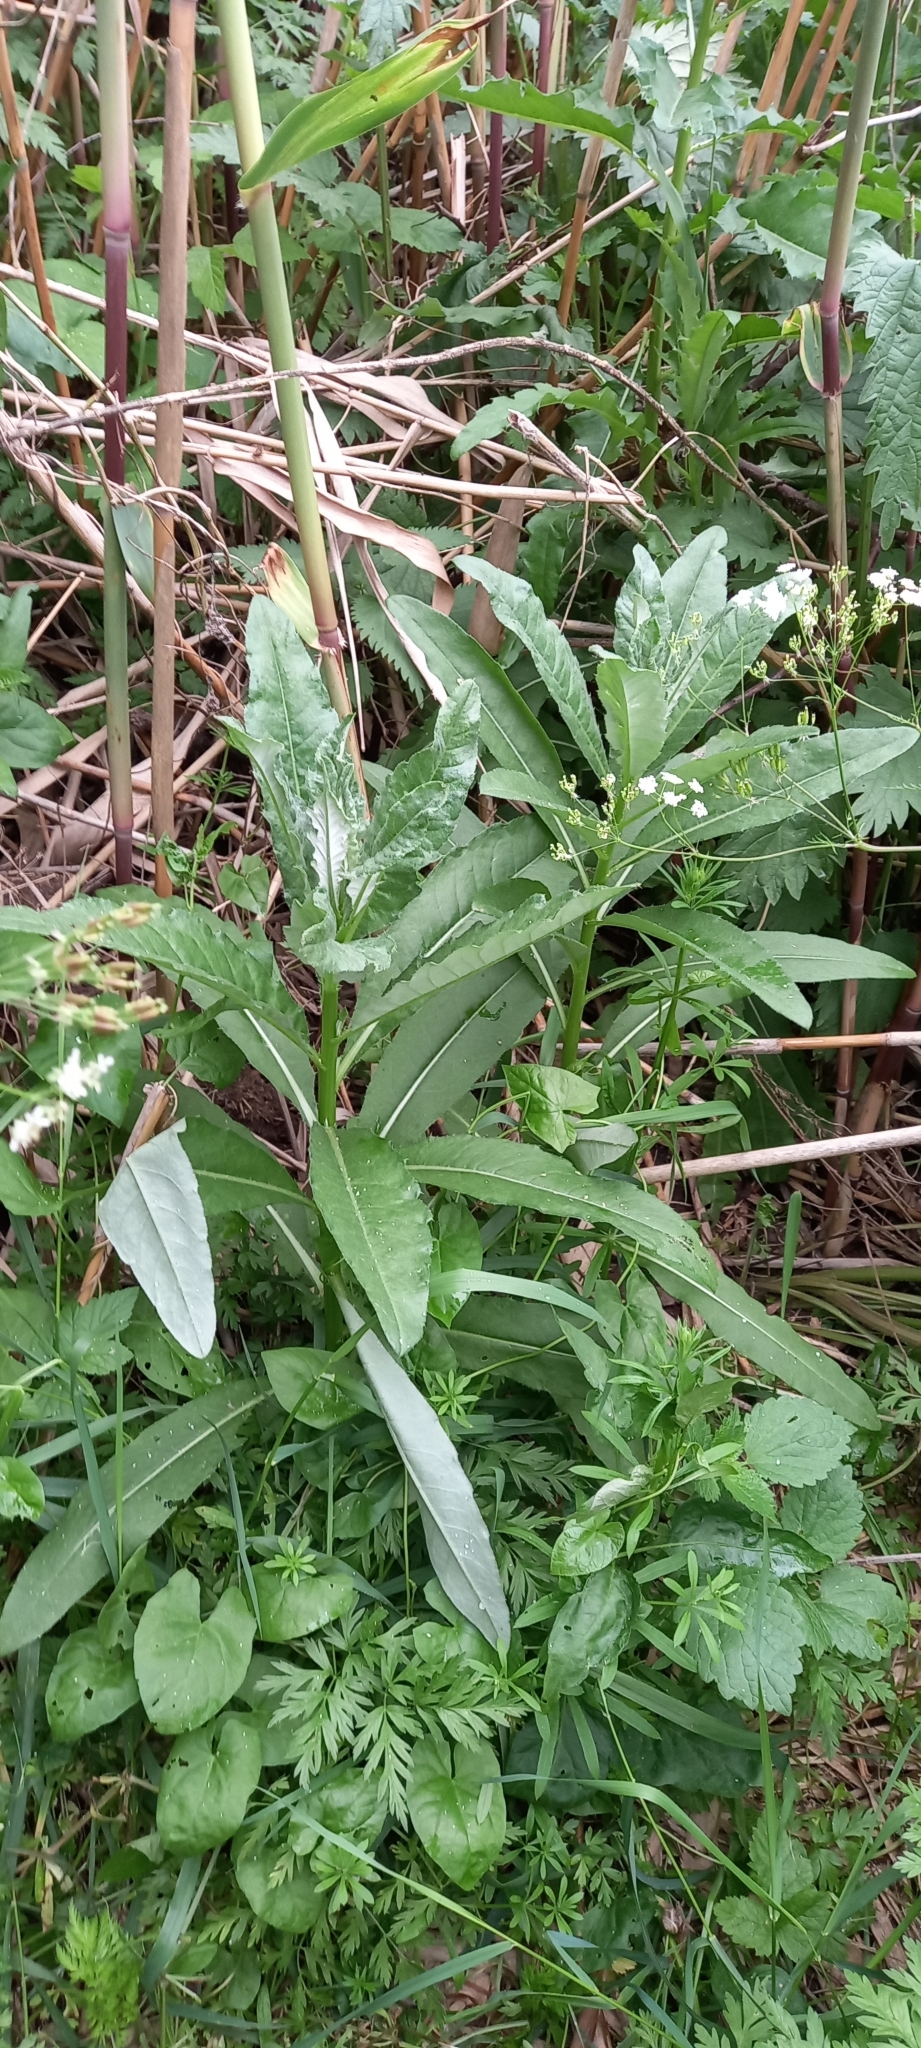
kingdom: Plantae
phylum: Tracheophyta
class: Magnoliopsida
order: Asterales
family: Asteraceae
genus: Cirsium
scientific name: Cirsium arvense
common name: Creeping thistle
